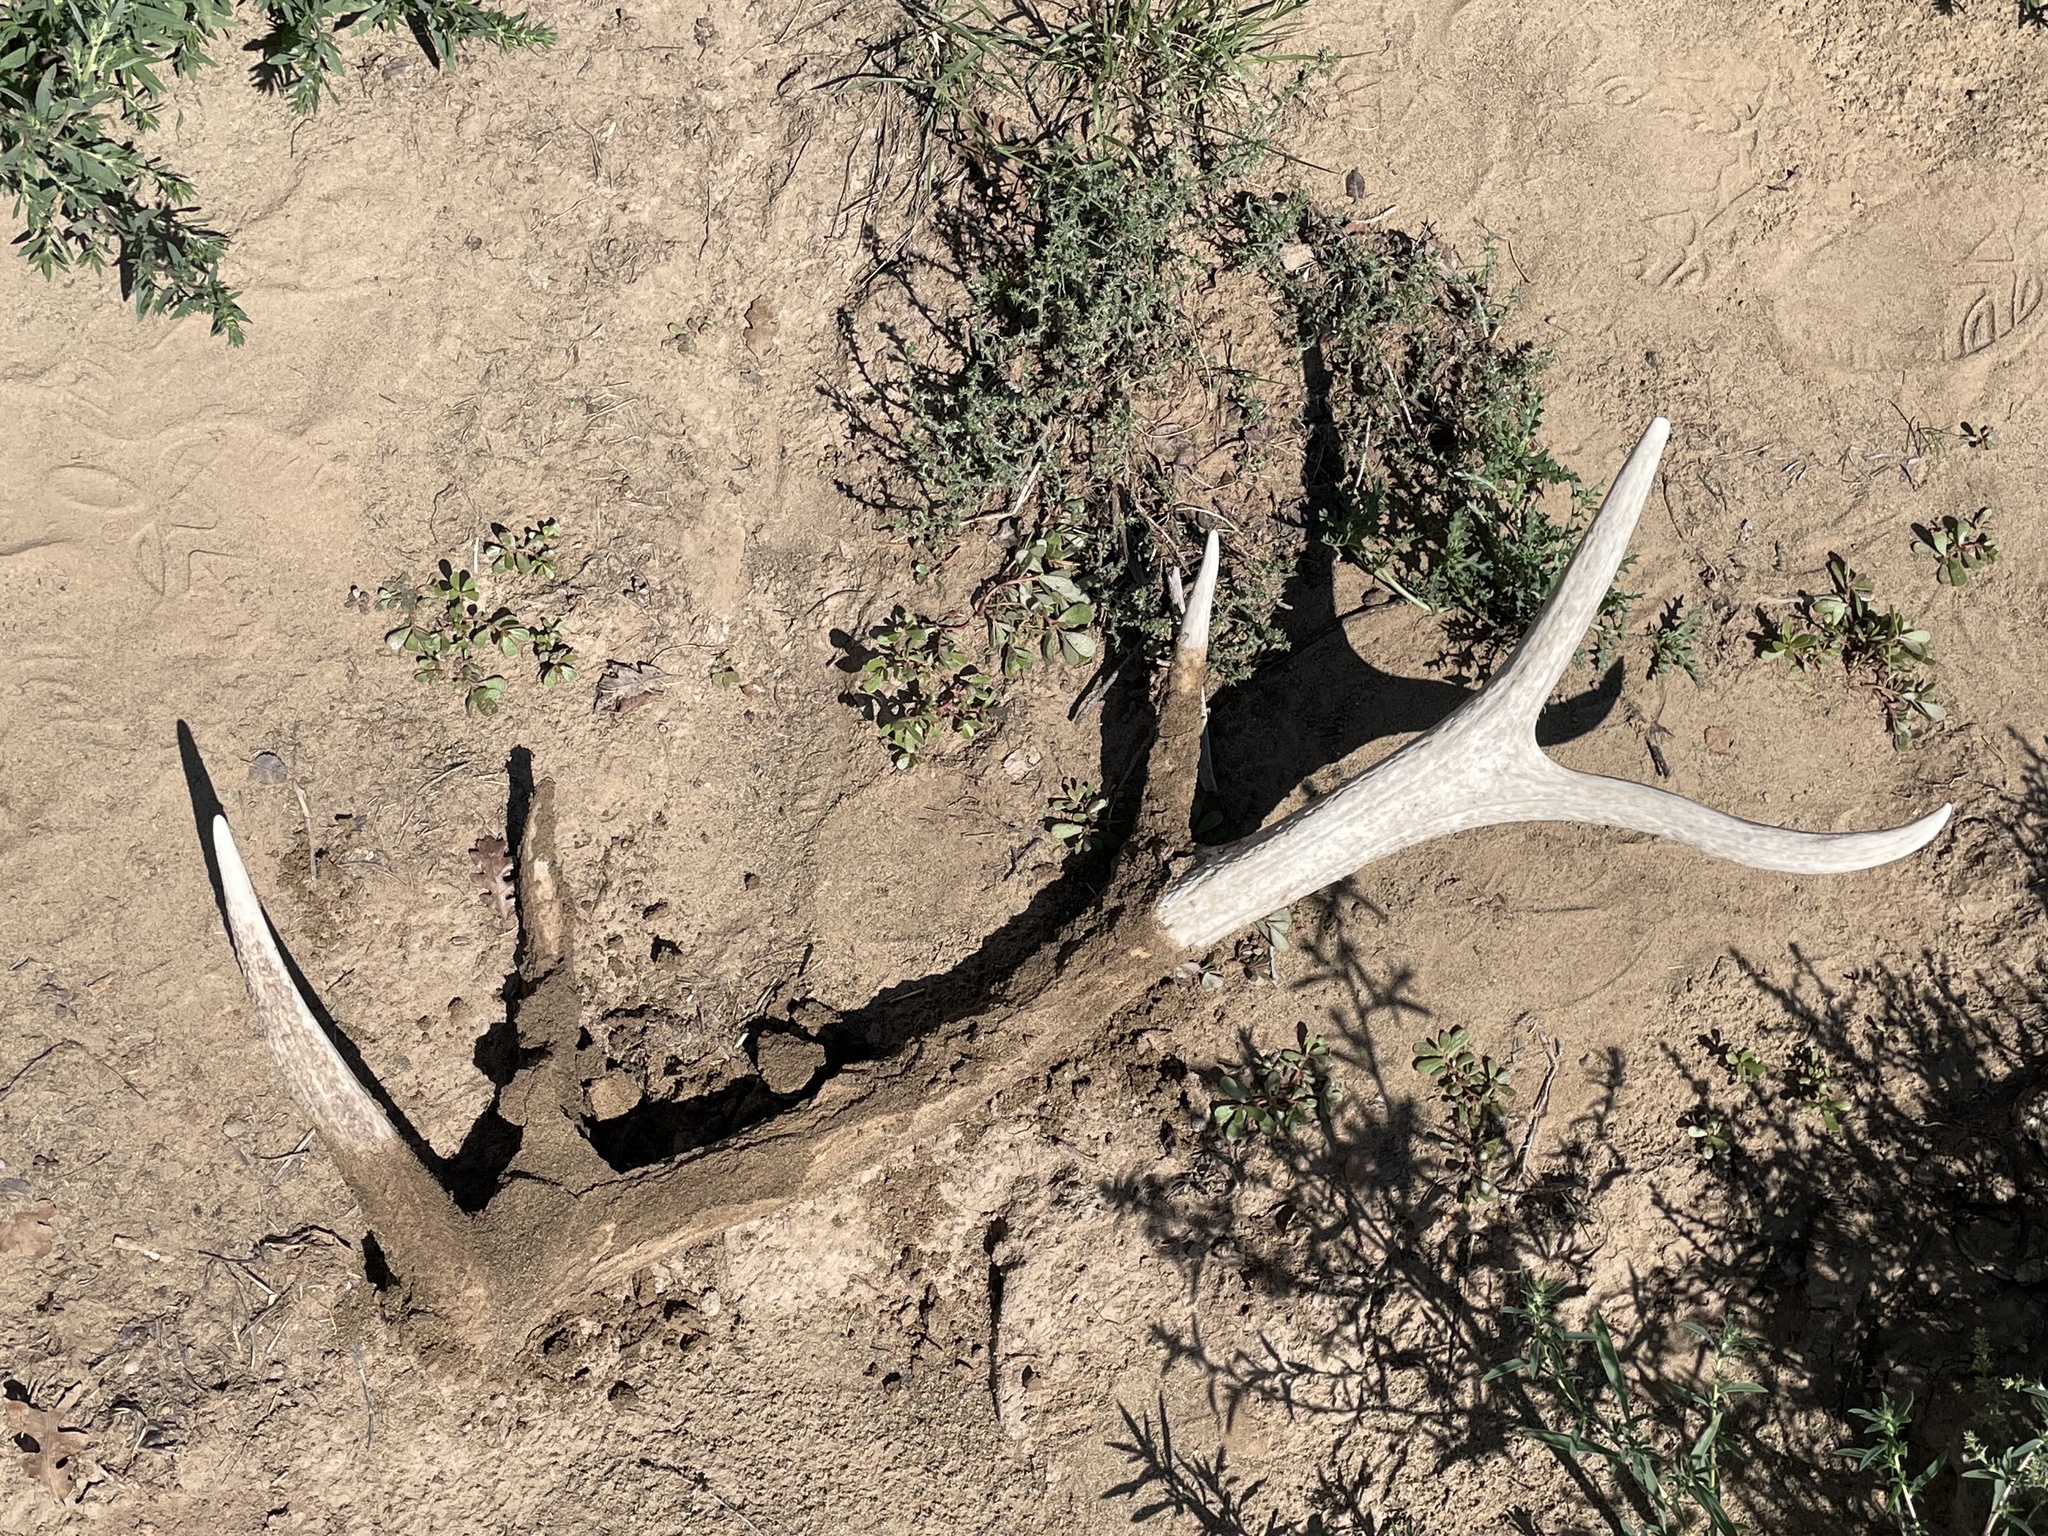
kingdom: Animalia
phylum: Chordata
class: Mammalia
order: Artiodactyla
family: Cervidae
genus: Cervus
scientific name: Cervus elaphus
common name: Red deer
